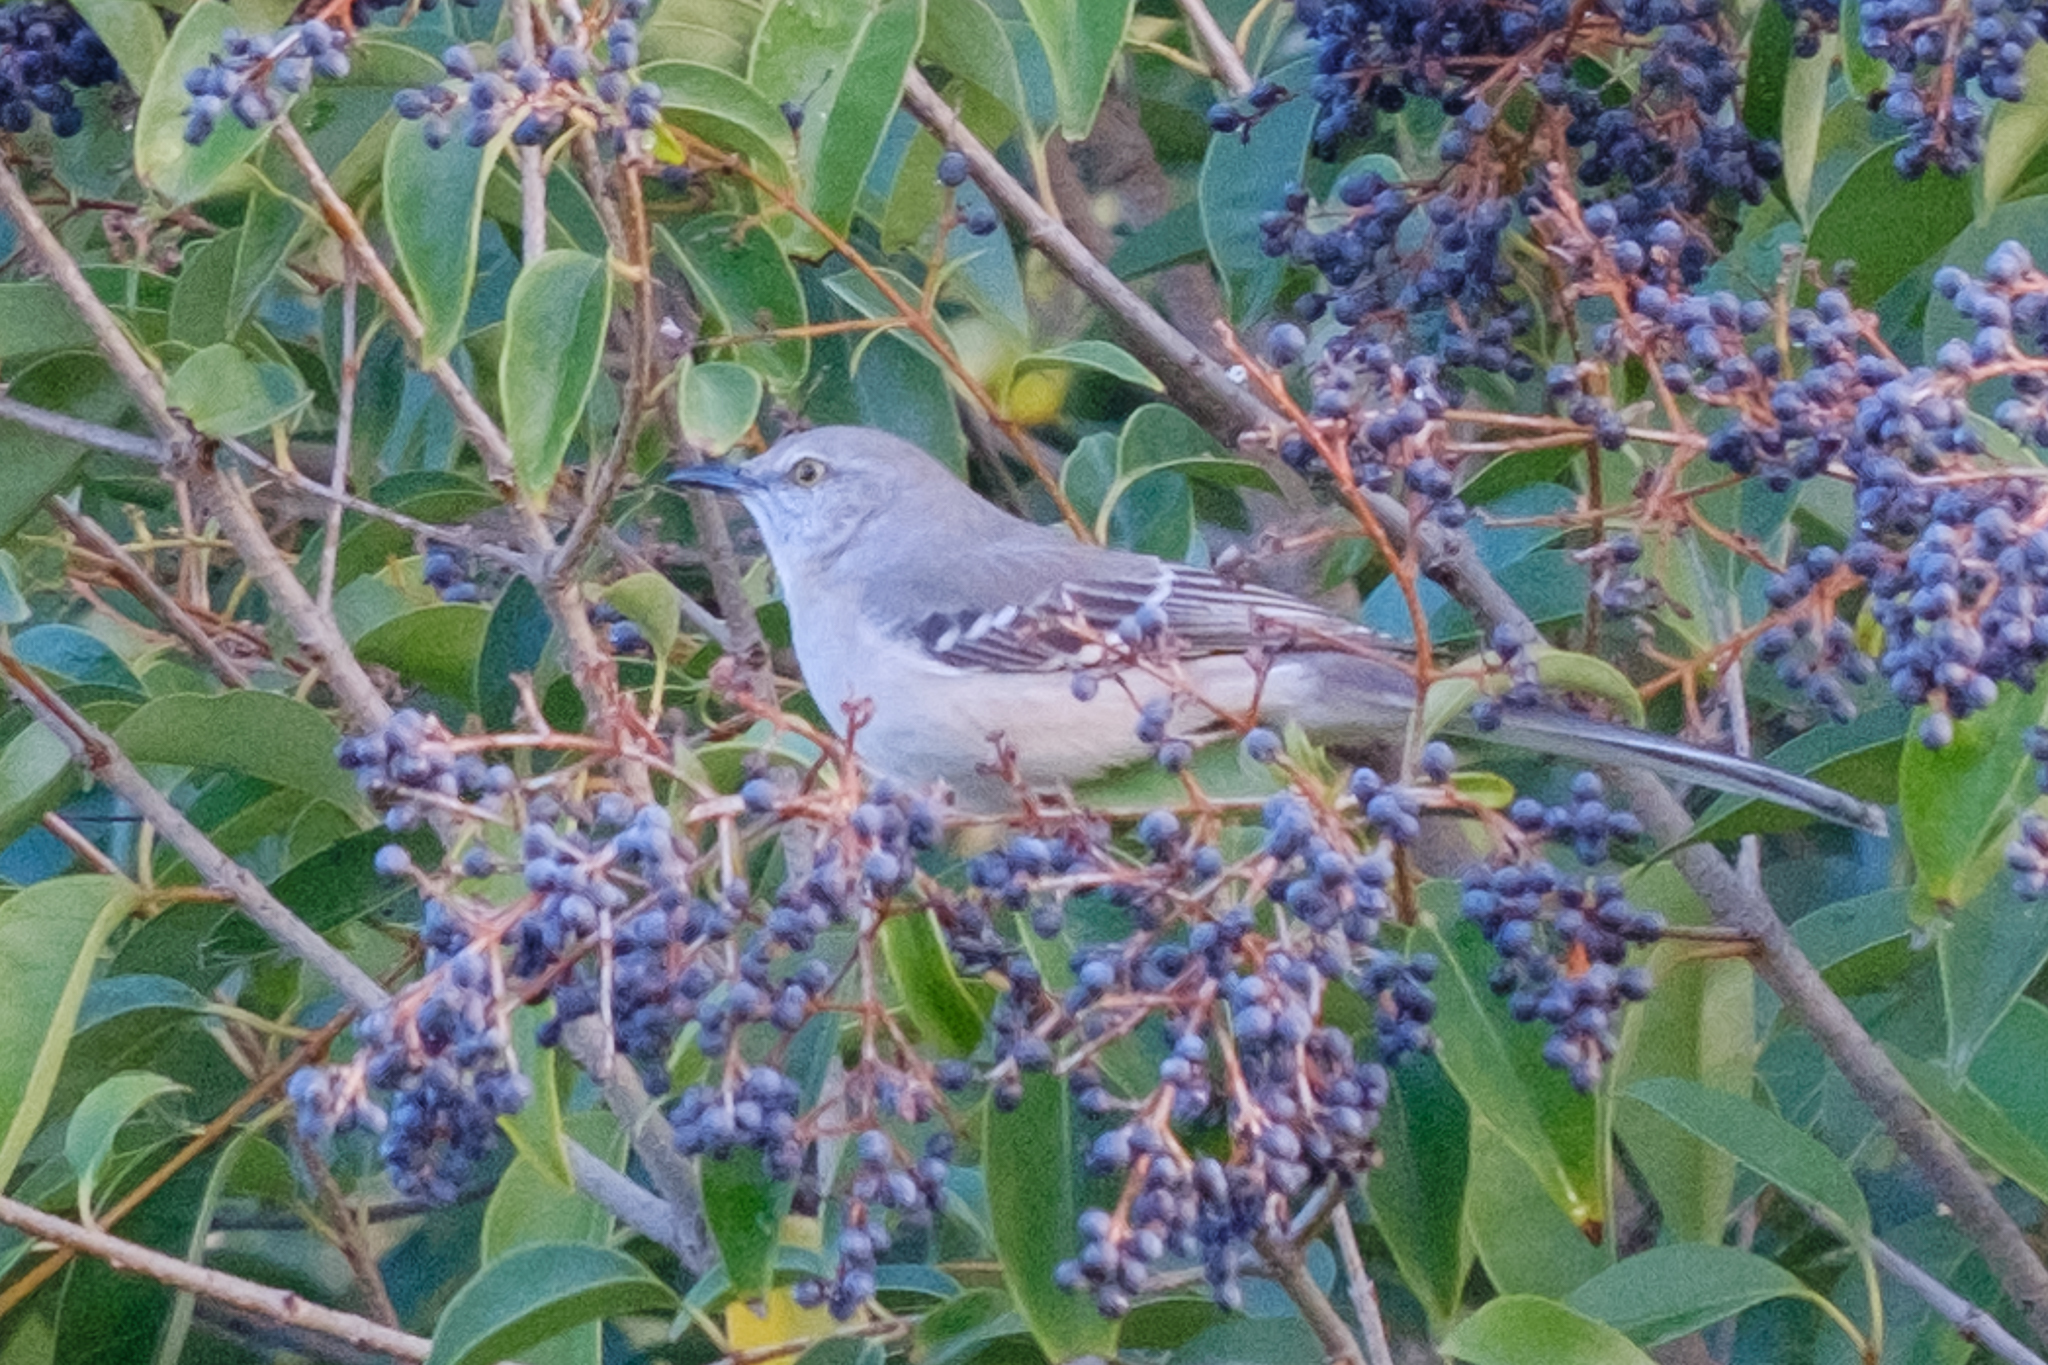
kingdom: Animalia
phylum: Chordata
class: Aves
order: Passeriformes
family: Mimidae
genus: Mimus
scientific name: Mimus polyglottos
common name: Northern mockingbird
